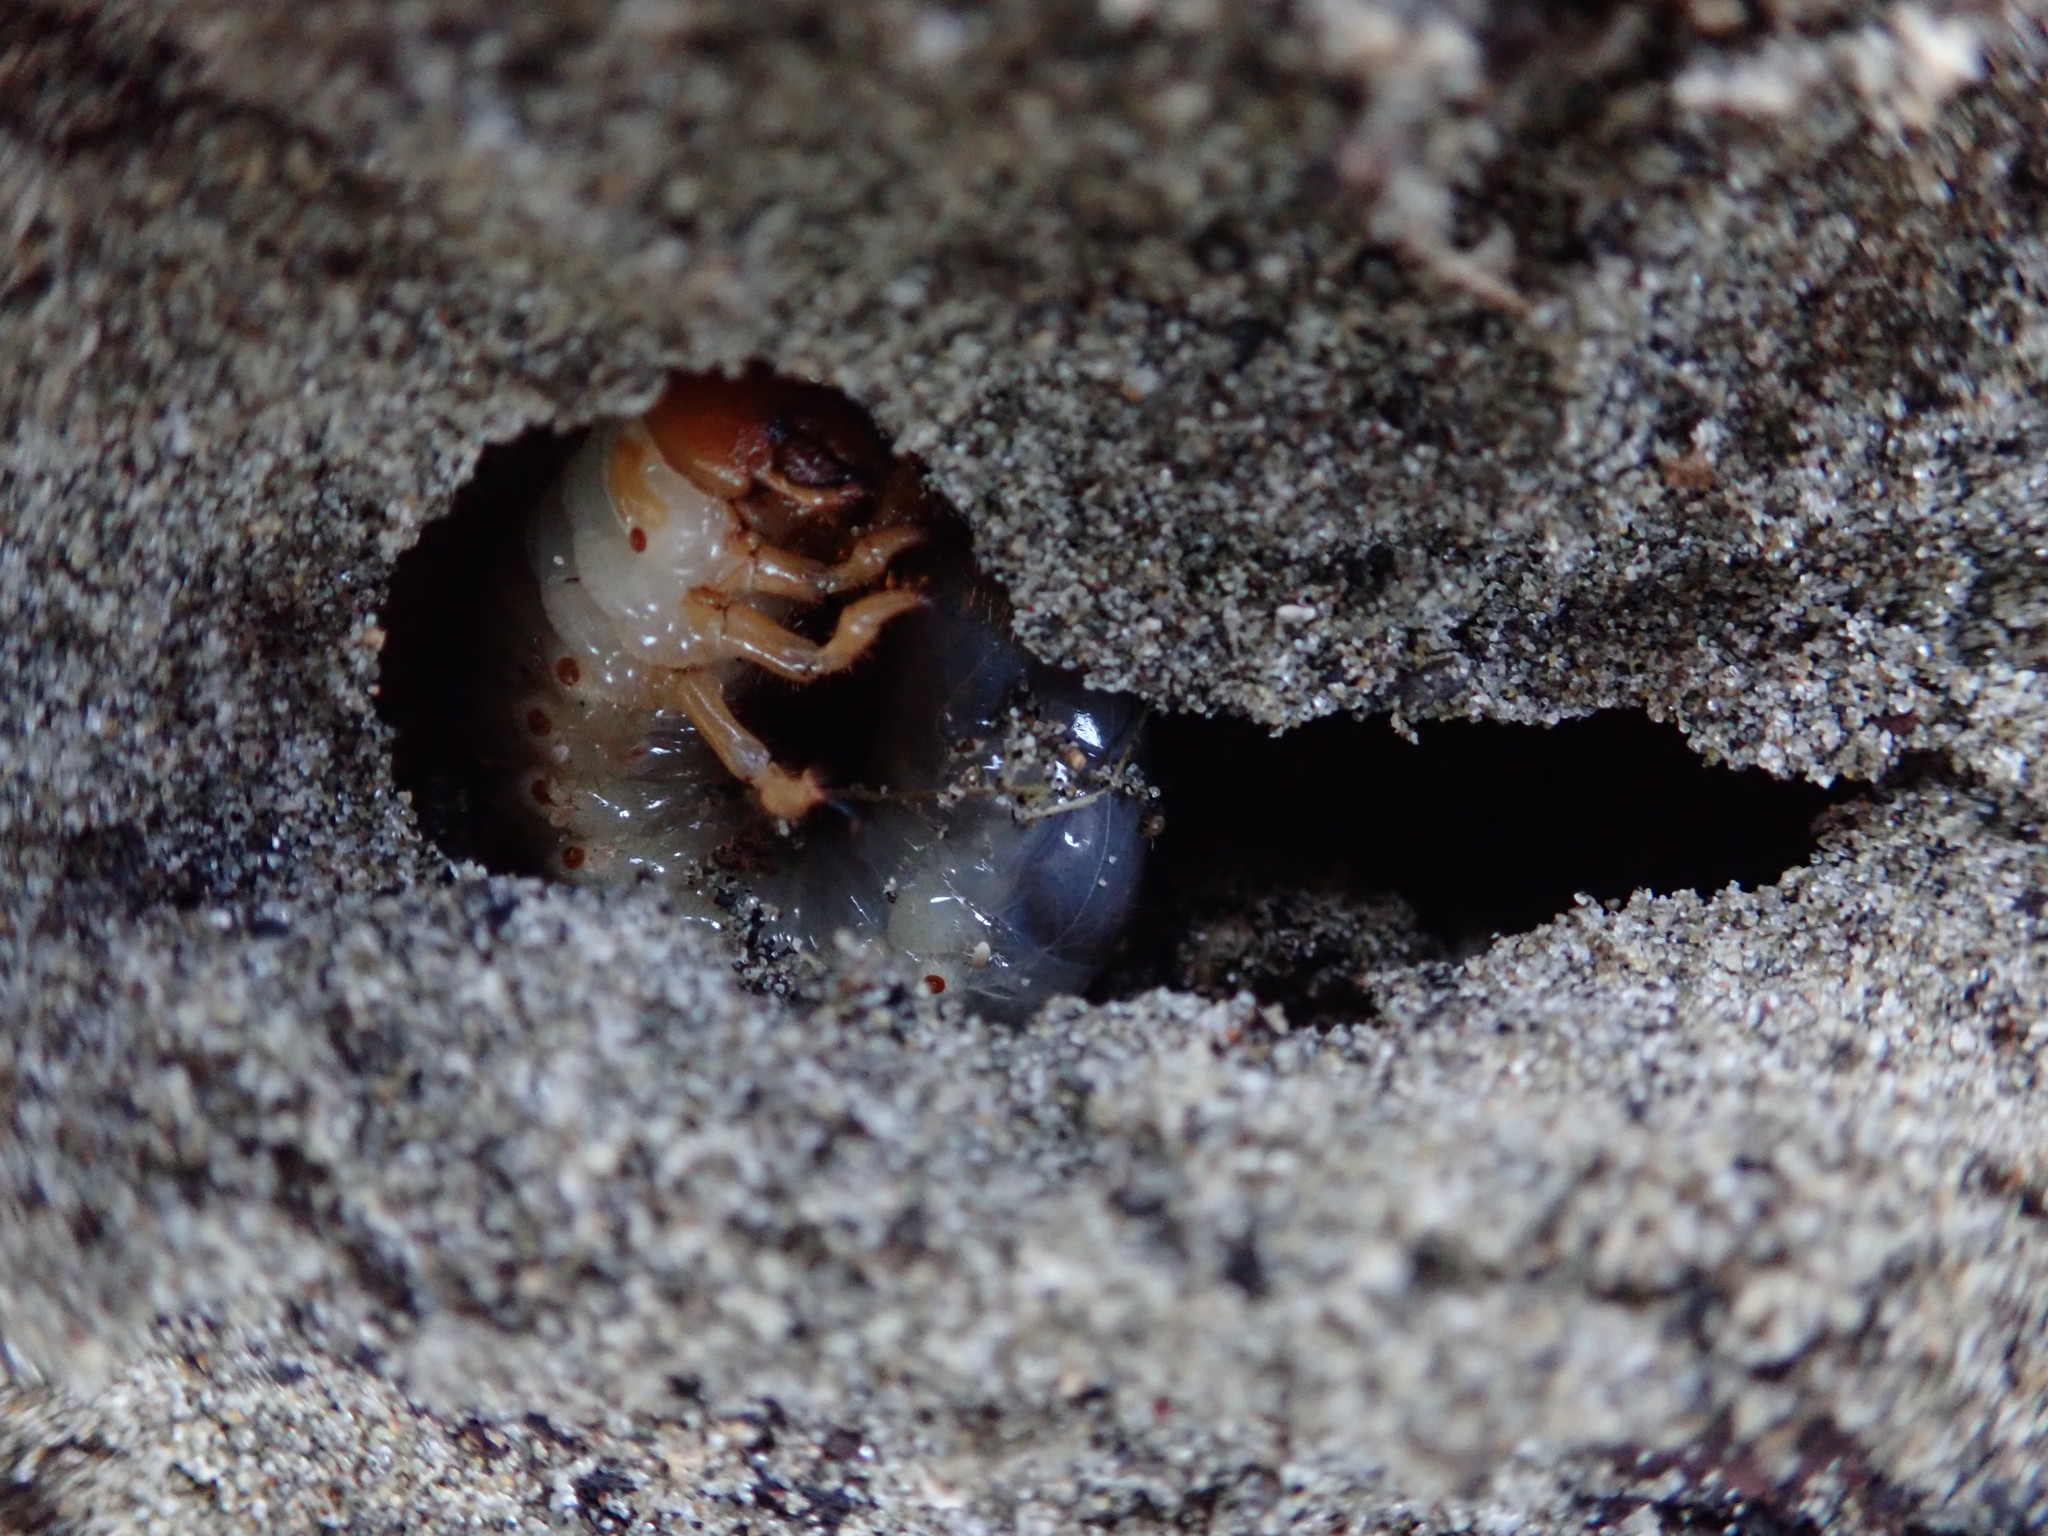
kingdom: Animalia
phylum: Arthropoda
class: Insecta
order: Coleoptera
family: Scarabaeidae
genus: Pericoptus
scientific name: Pericoptus truncatus
